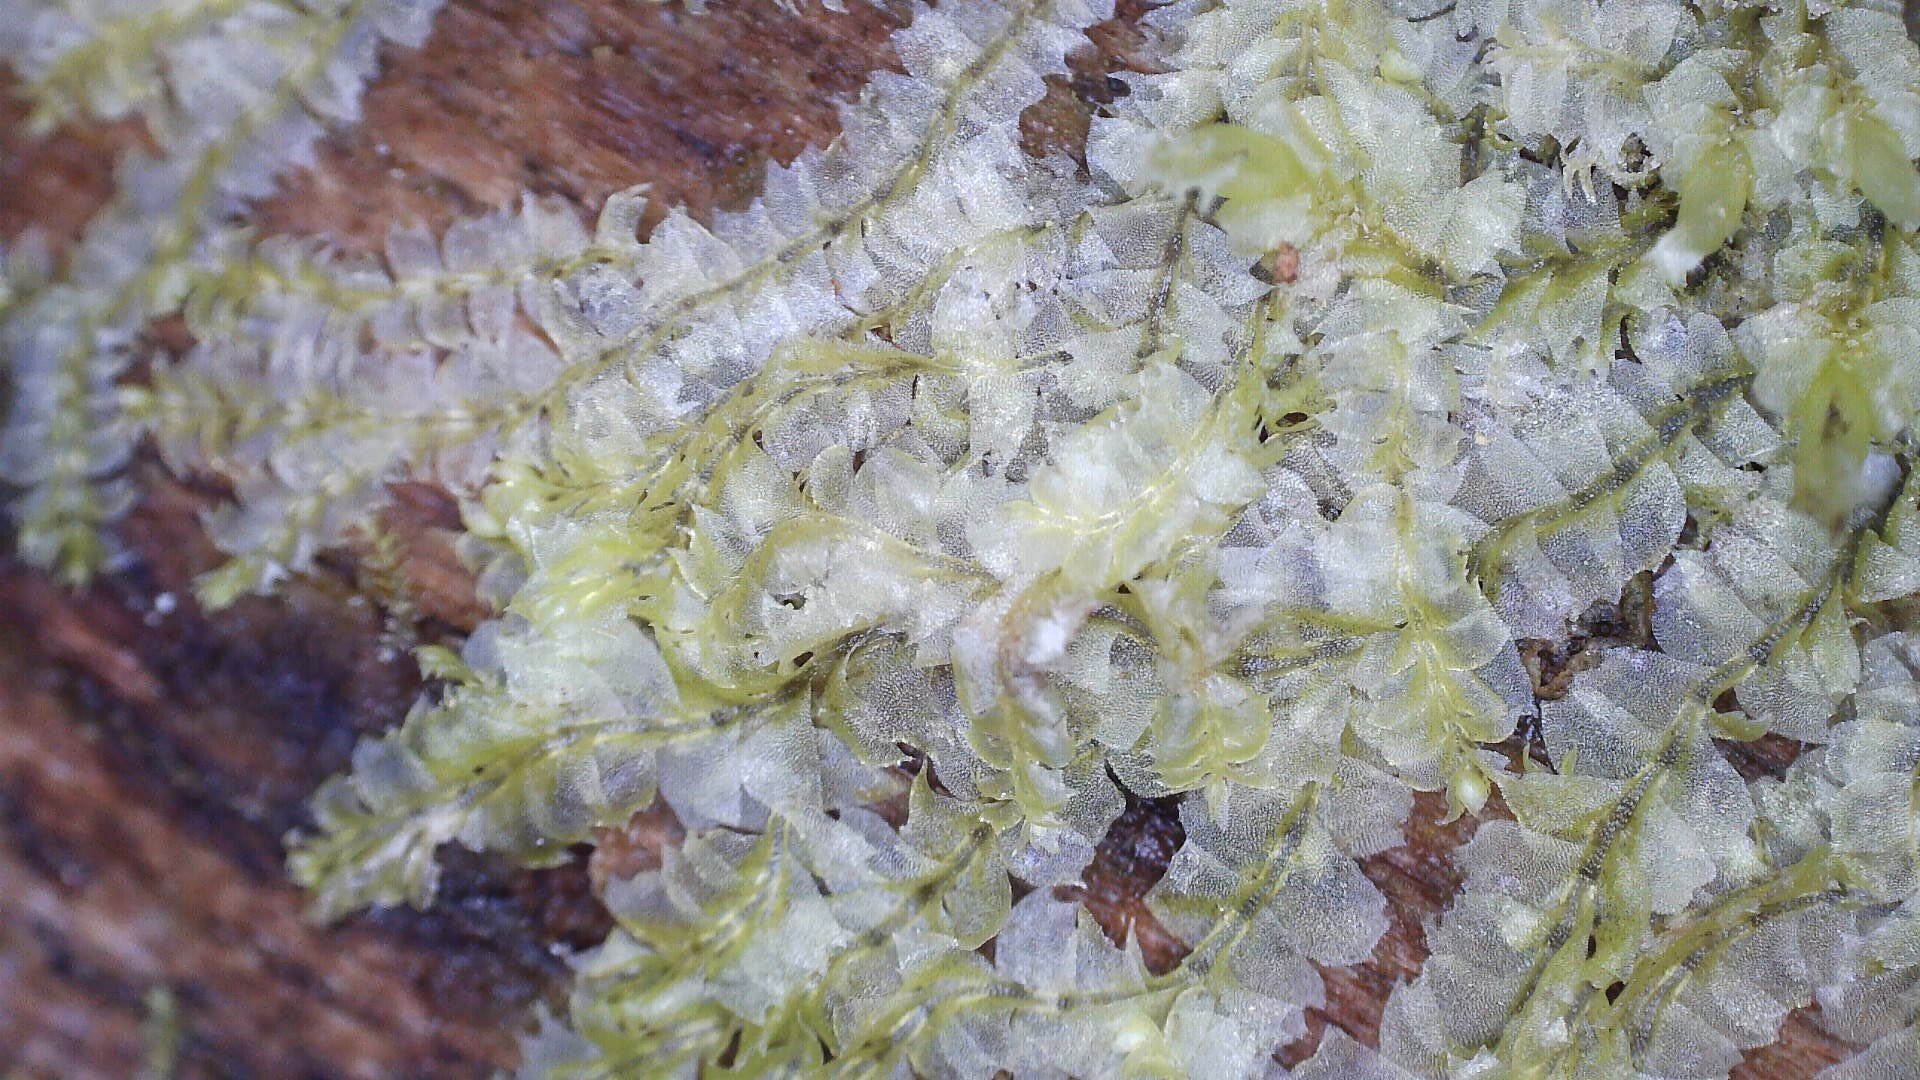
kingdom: Plantae
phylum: Marchantiophyta
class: Jungermanniopsida
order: Jungermanniales
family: Lophocoleaceae
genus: Lophocolea
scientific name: Lophocolea heterophylla
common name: Variable-leaved crestwort
